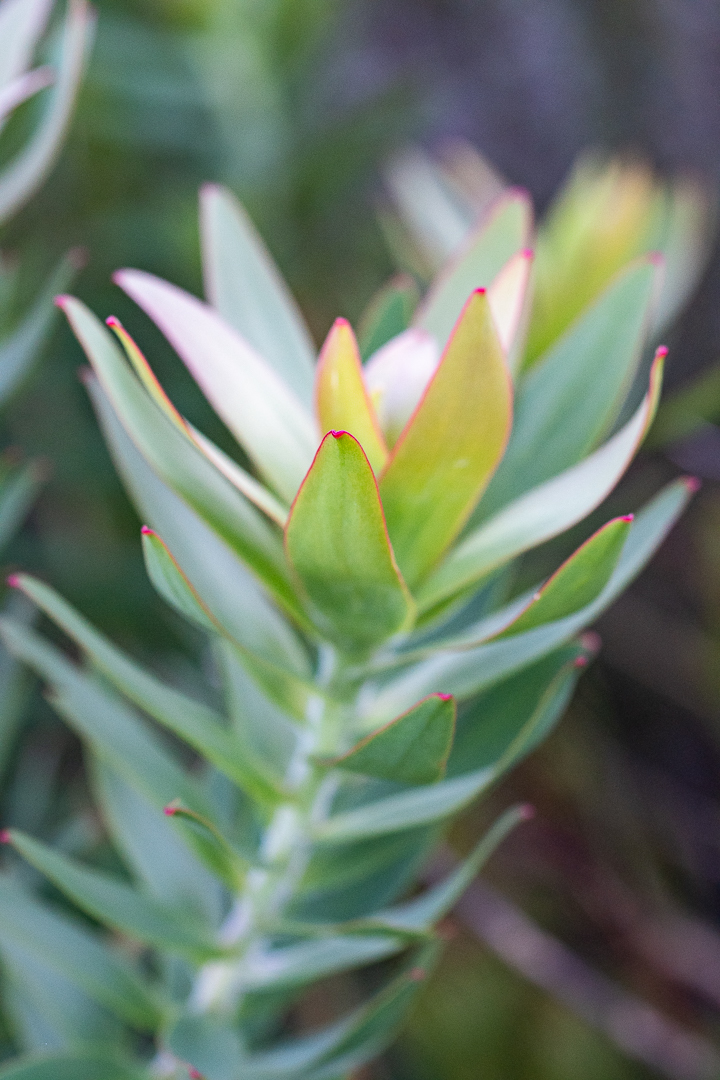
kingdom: Plantae
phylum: Tracheophyta
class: Magnoliopsida
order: Proteales
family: Proteaceae
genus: Leucadendron
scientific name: Leucadendron sessile
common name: Western sunbush
